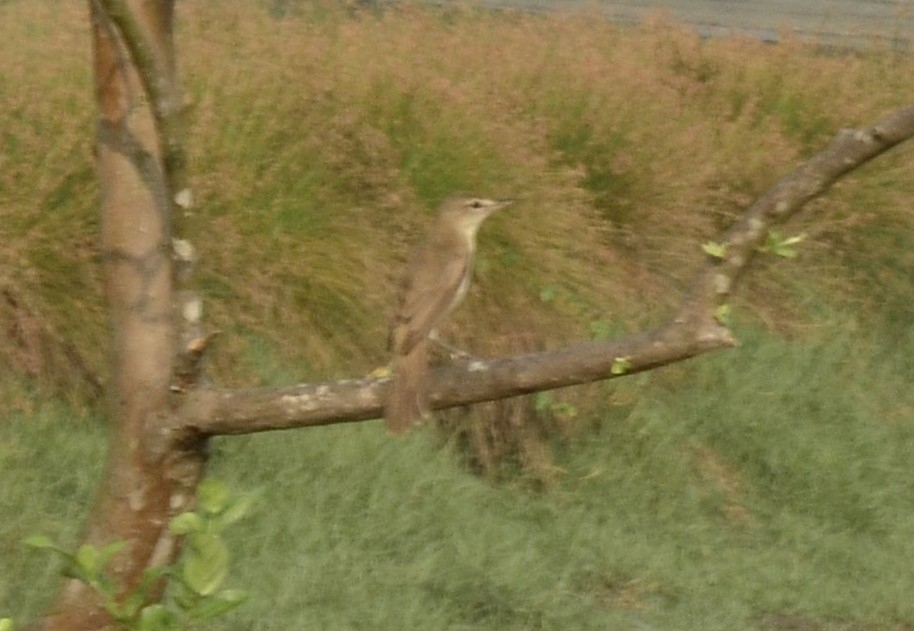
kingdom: Animalia
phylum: Chordata
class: Aves
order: Passeriformes
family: Acrocephalidae
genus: Acrocephalus
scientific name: Acrocephalus stentoreus
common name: Clamorous reed warbler
